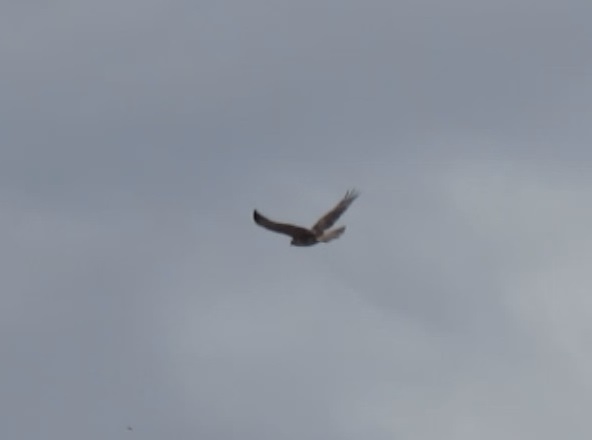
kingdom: Animalia
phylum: Chordata
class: Aves
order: Accipitriformes
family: Accipitridae
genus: Buteo
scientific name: Buteo jamaicensis
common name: Red-tailed hawk
